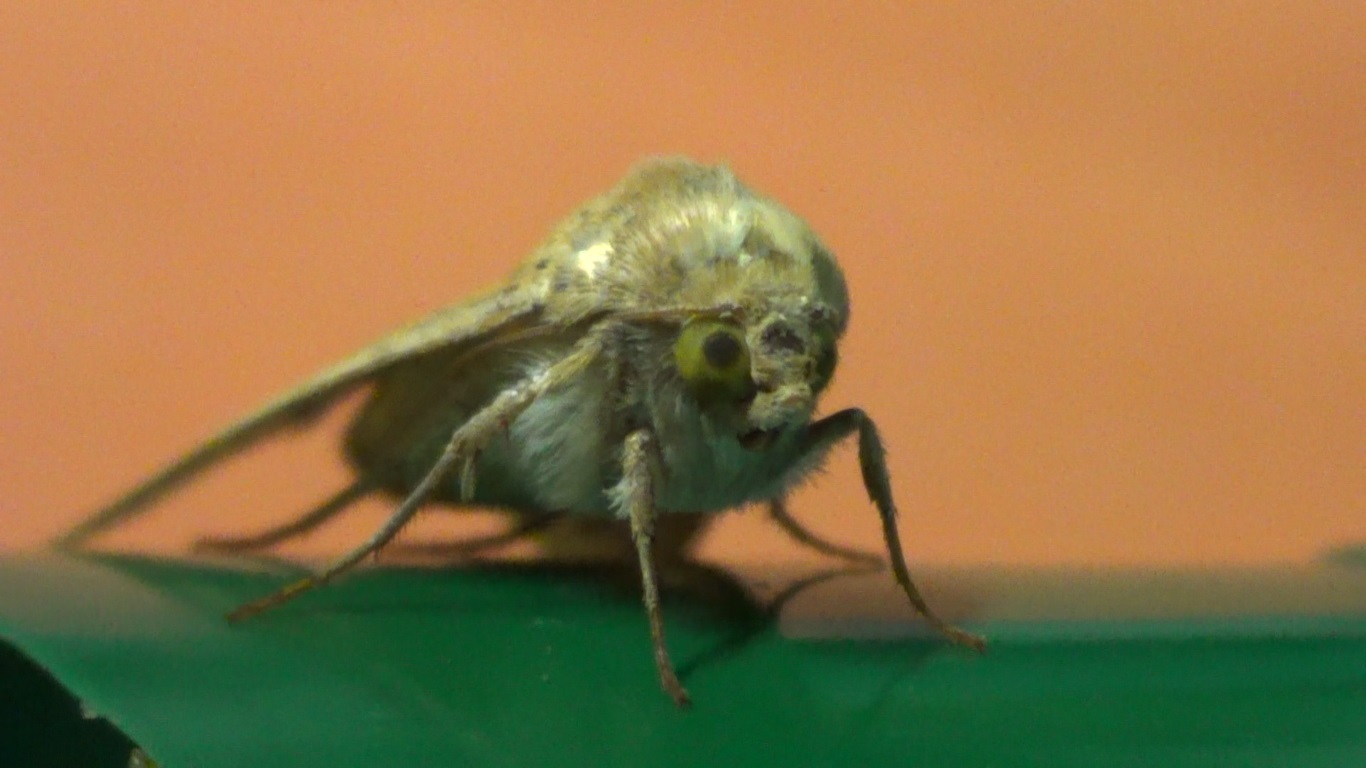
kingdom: Animalia
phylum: Arthropoda
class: Insecta
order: Lepidoptera
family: Noctuidae
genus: Helicoverpa
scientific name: Helicoverpa armigera
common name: Cotton bollworm
